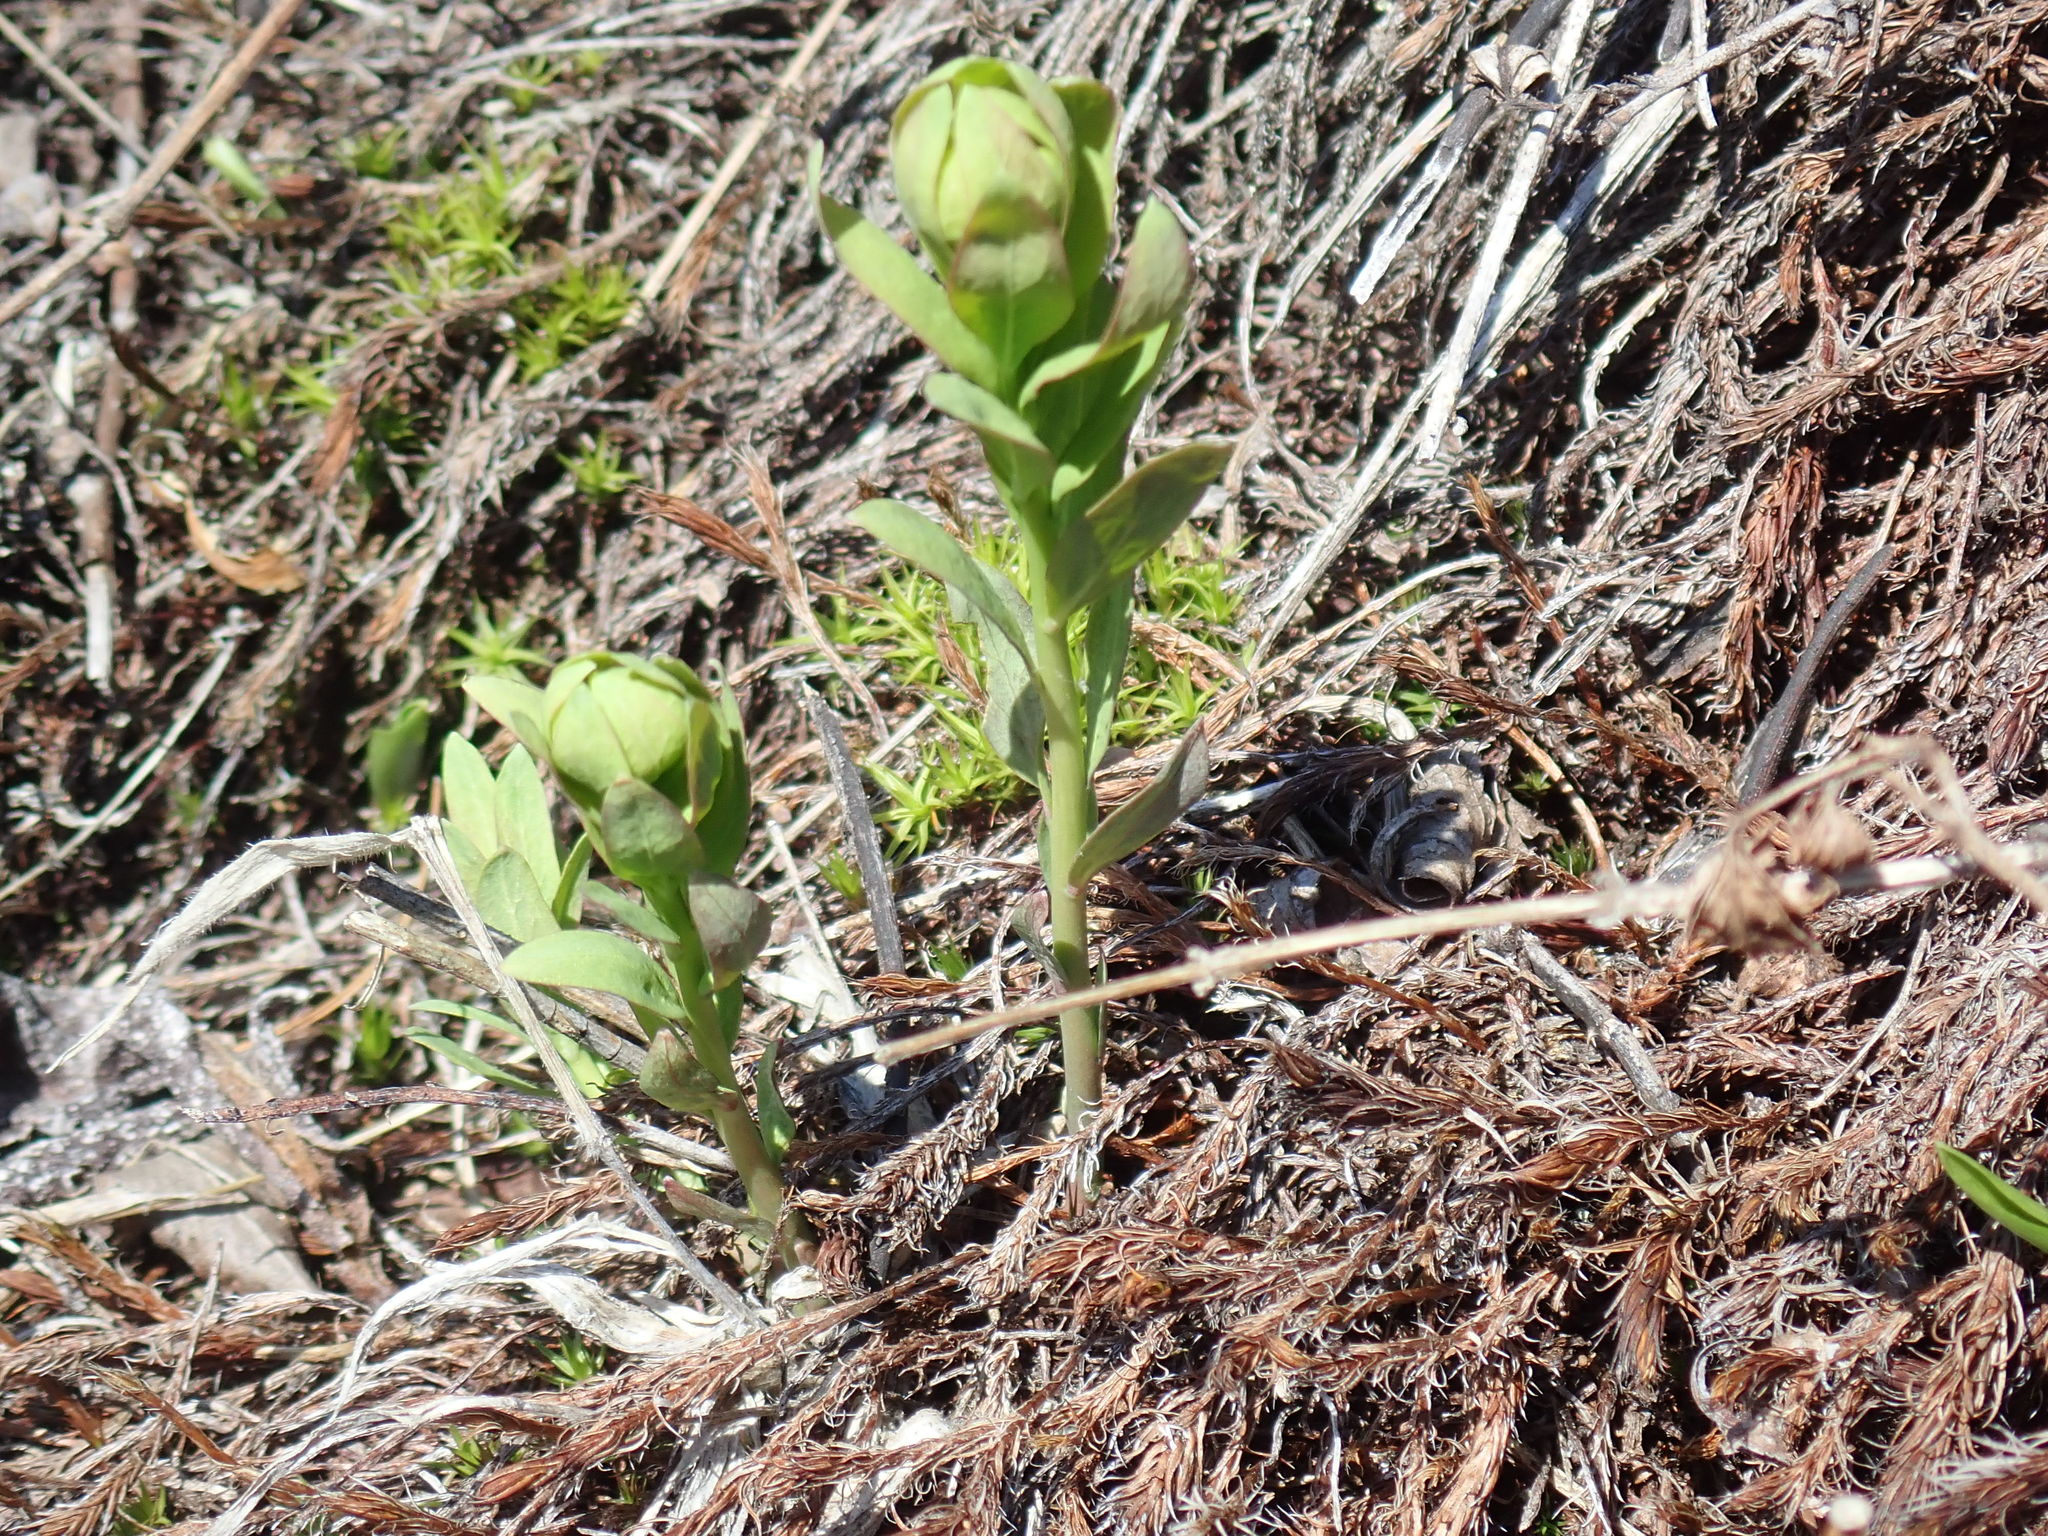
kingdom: Plantae
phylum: Tracheophyta
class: Magnoliopsida
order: Santalales
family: Comandraceae
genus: Comandra
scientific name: Comandra umbellata
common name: Bastard toadflax
